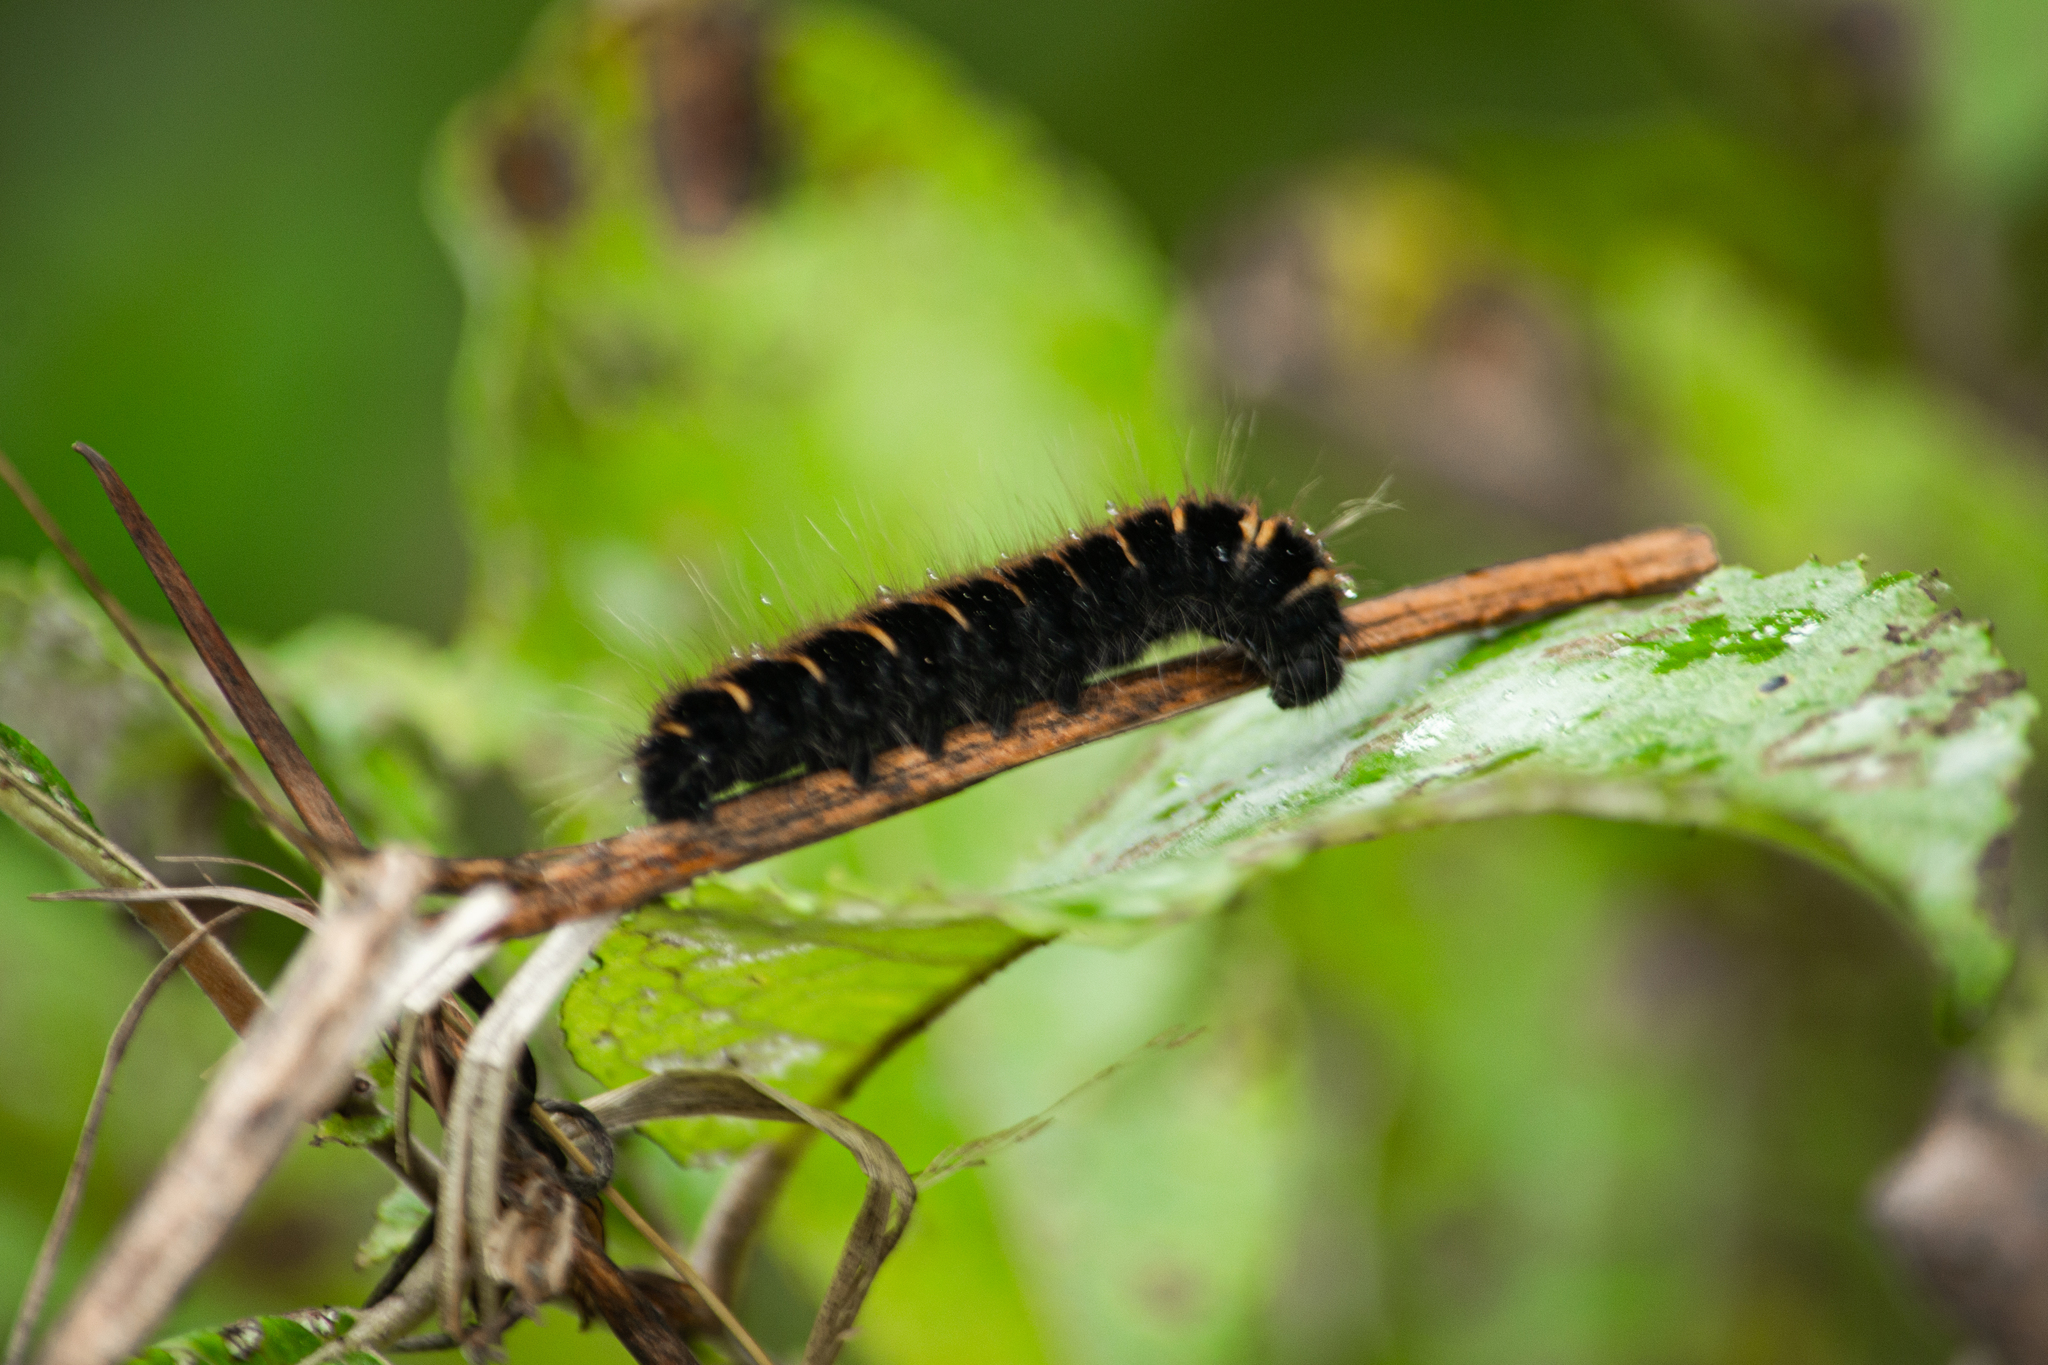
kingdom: Animalia
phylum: Arthropoda
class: Insecta
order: Lepidoptera
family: Lasiocampidae
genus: Macrothylacia
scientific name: Macrothylacia rubi
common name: Fox moth
